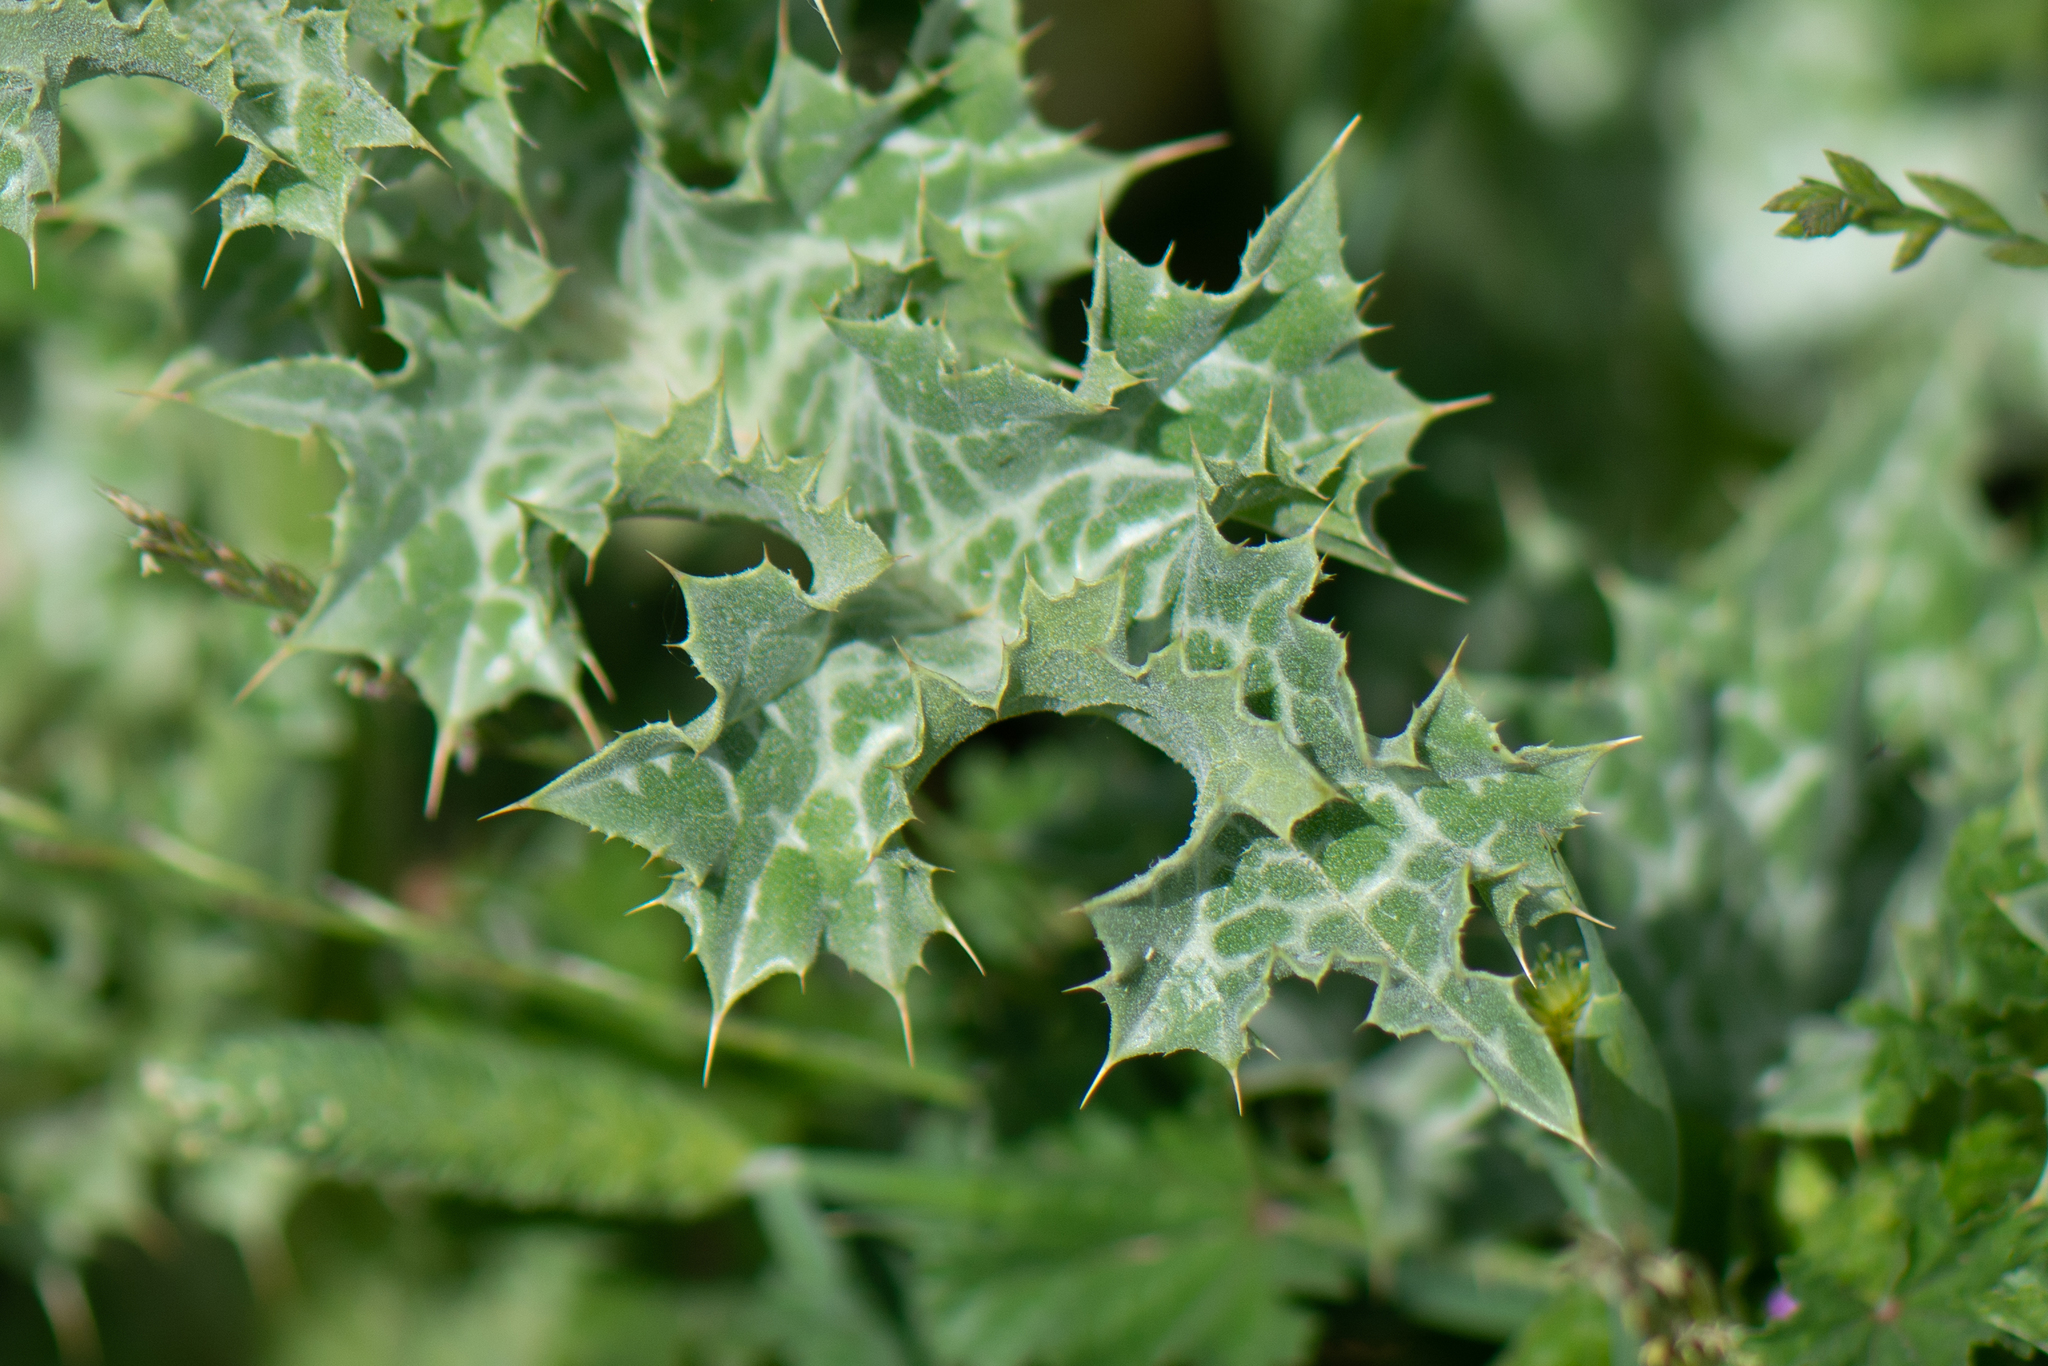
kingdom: Plantae
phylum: Tracheophyta
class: Magnoliopsida
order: Asterales
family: Asteraceae
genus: Silybum
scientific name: Silybum marianum
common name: Milk thistle
